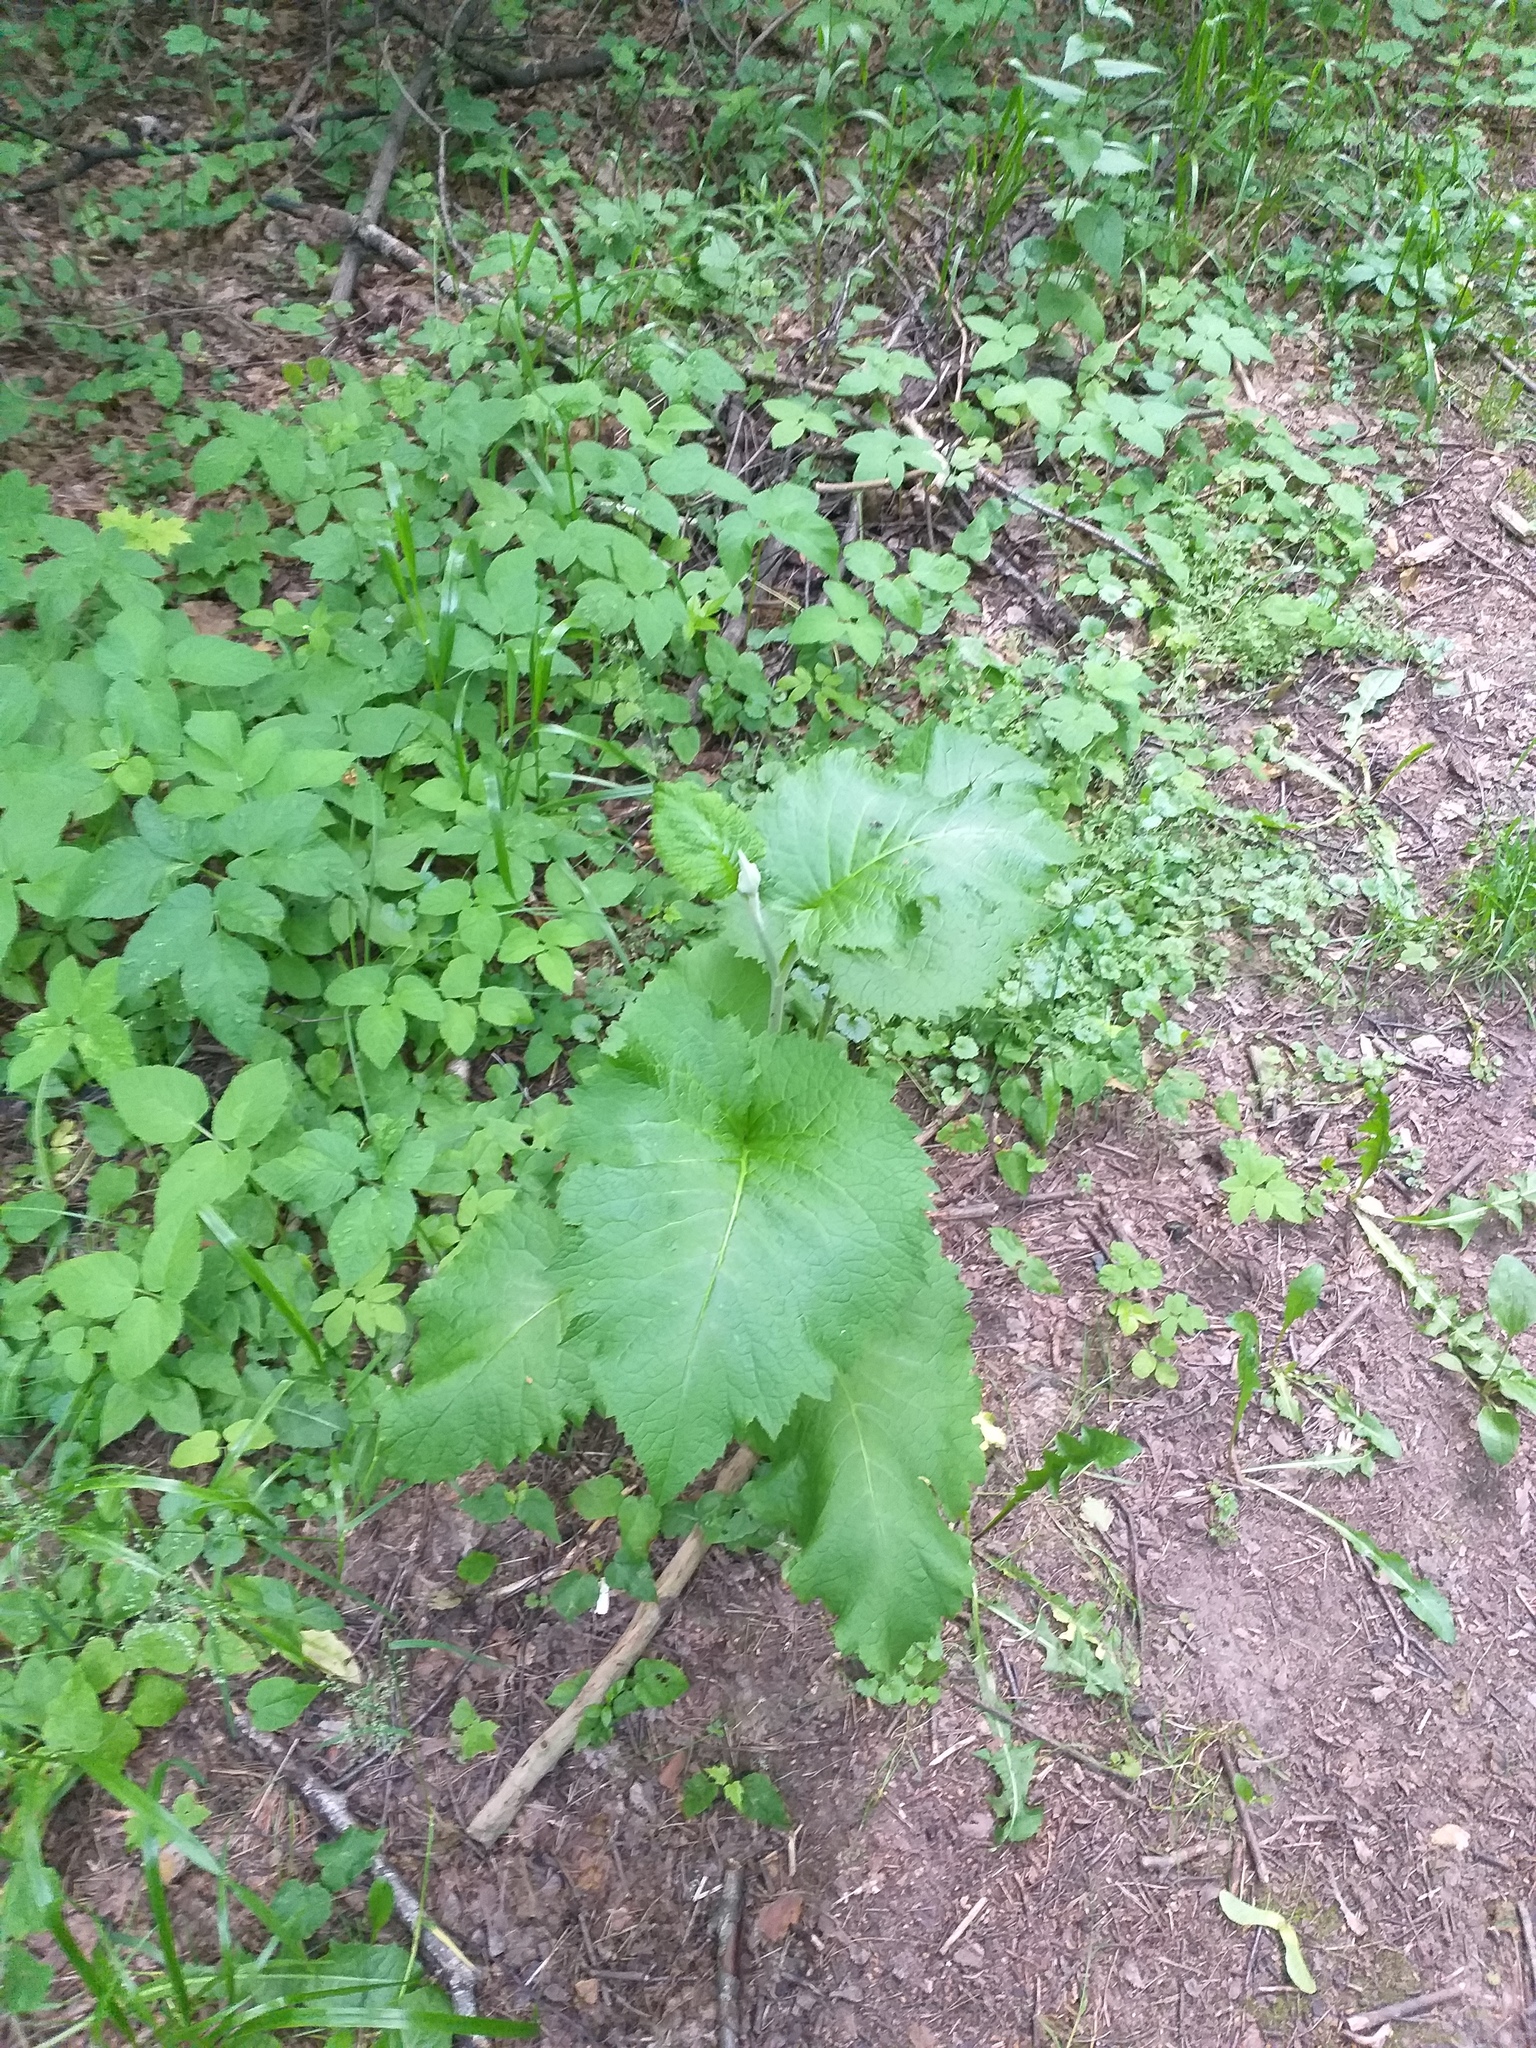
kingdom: Plantae
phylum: Tracheophyta
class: Magnoliopsida
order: Asterales
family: Asteraceae
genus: Telekia
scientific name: Telekia speciosa
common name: Yellow oxeye
